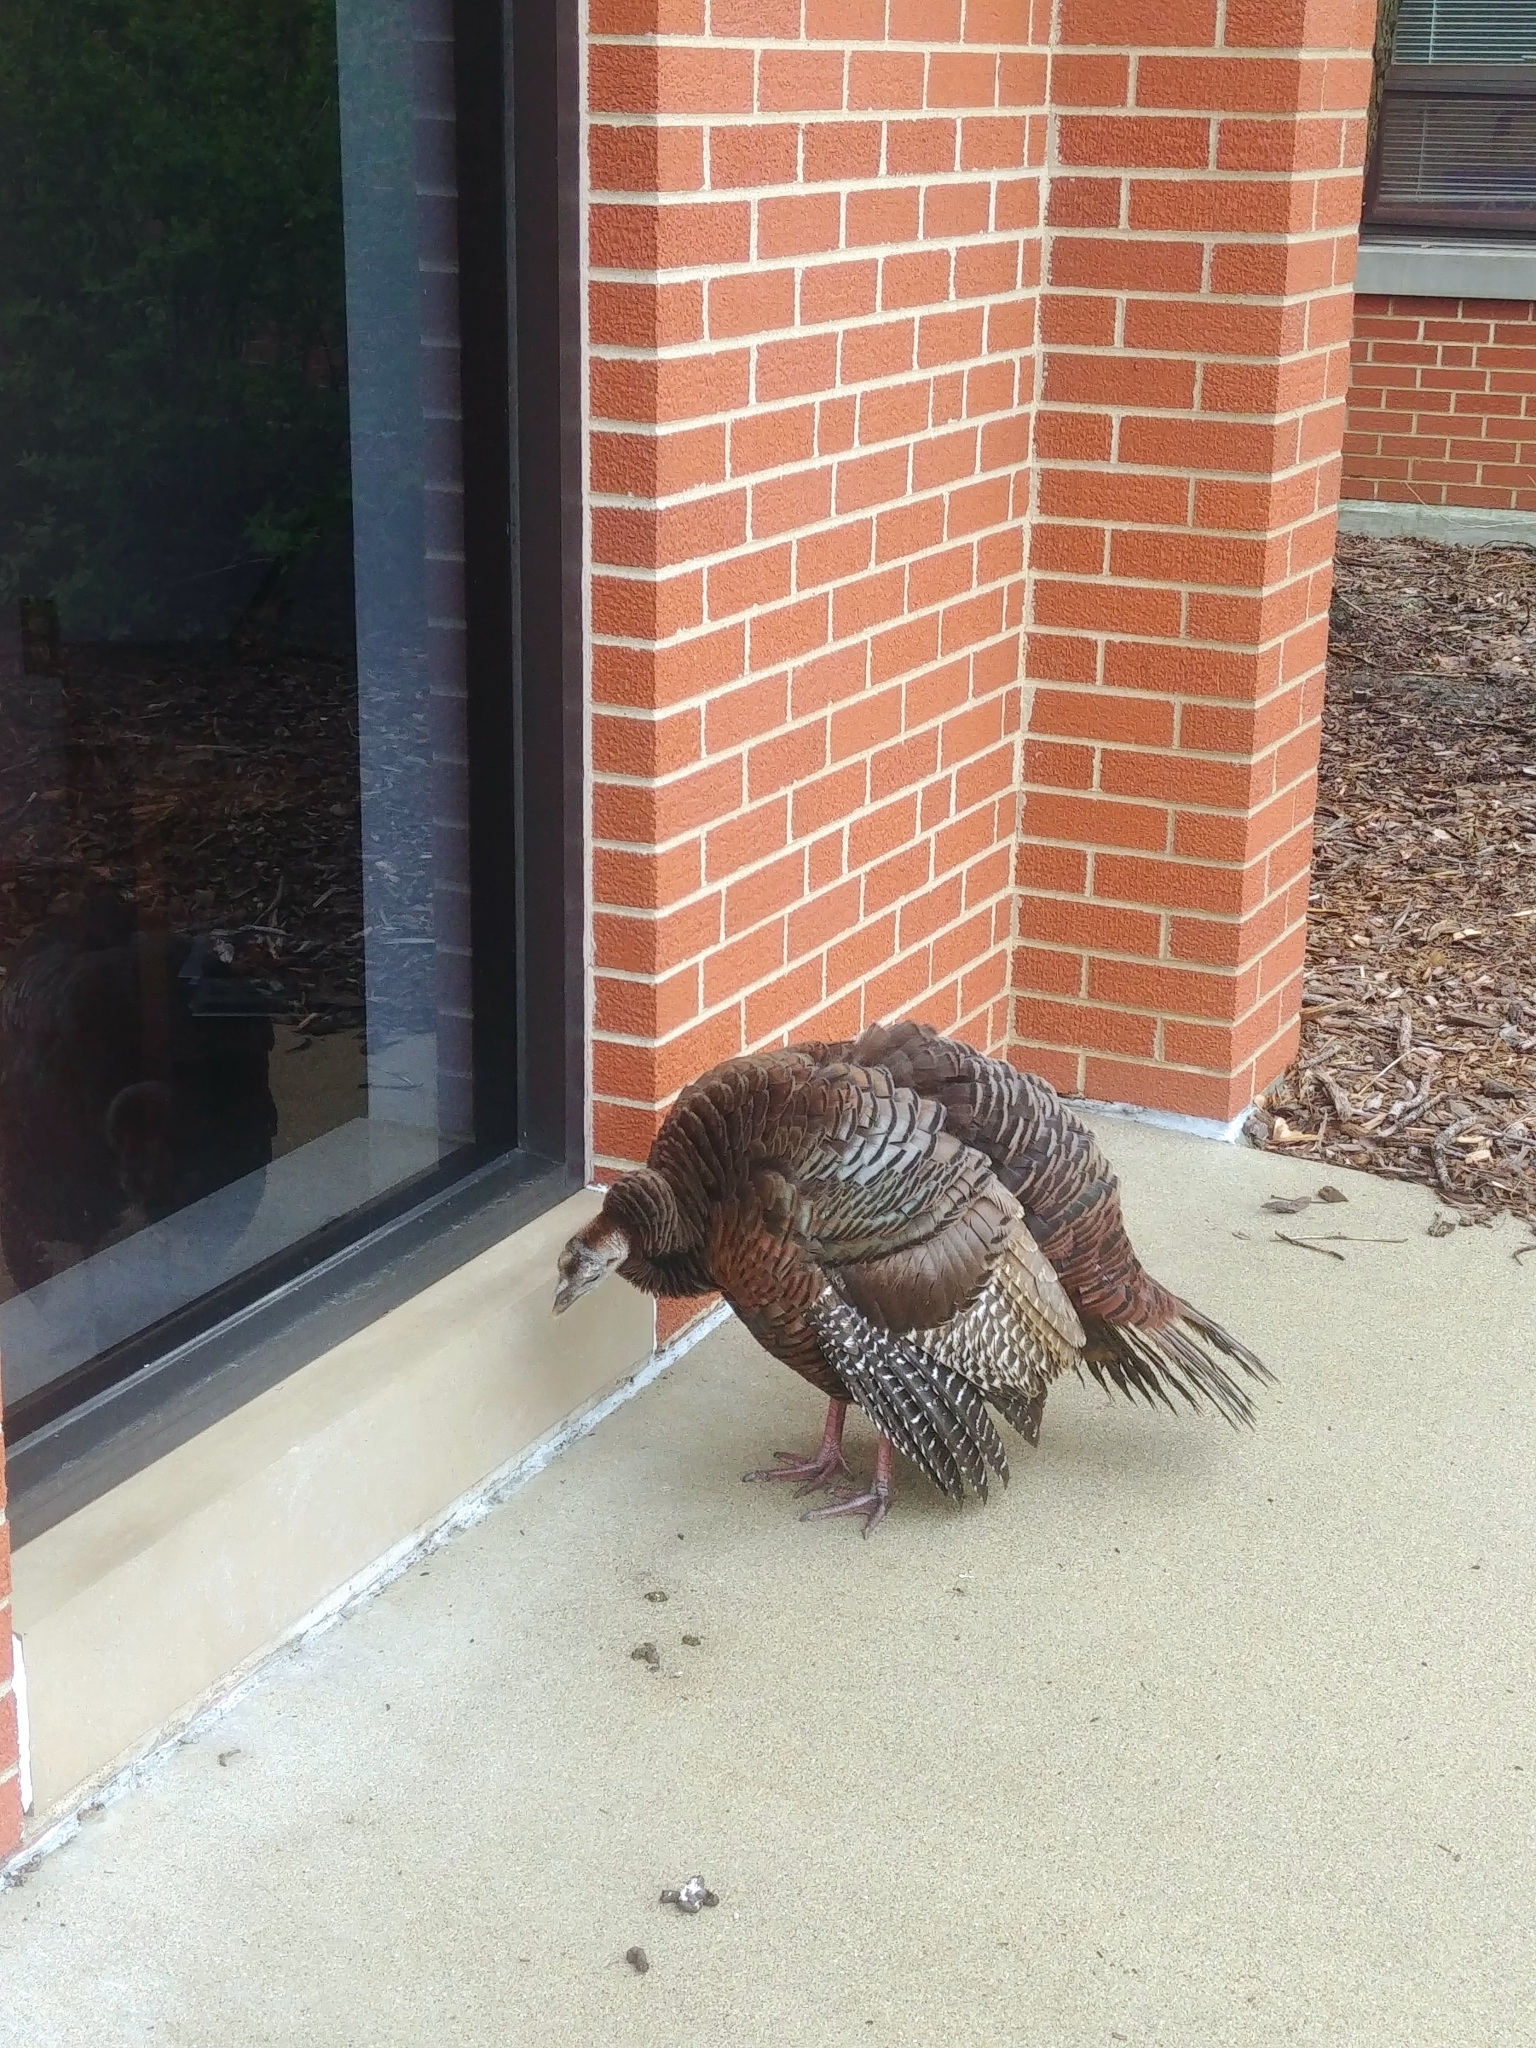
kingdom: Animalia
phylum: Chordata
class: Aves
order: Galliformes
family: Phasianidae
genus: Meleagris
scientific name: Meleagris gallopavo
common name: Wild turkey
